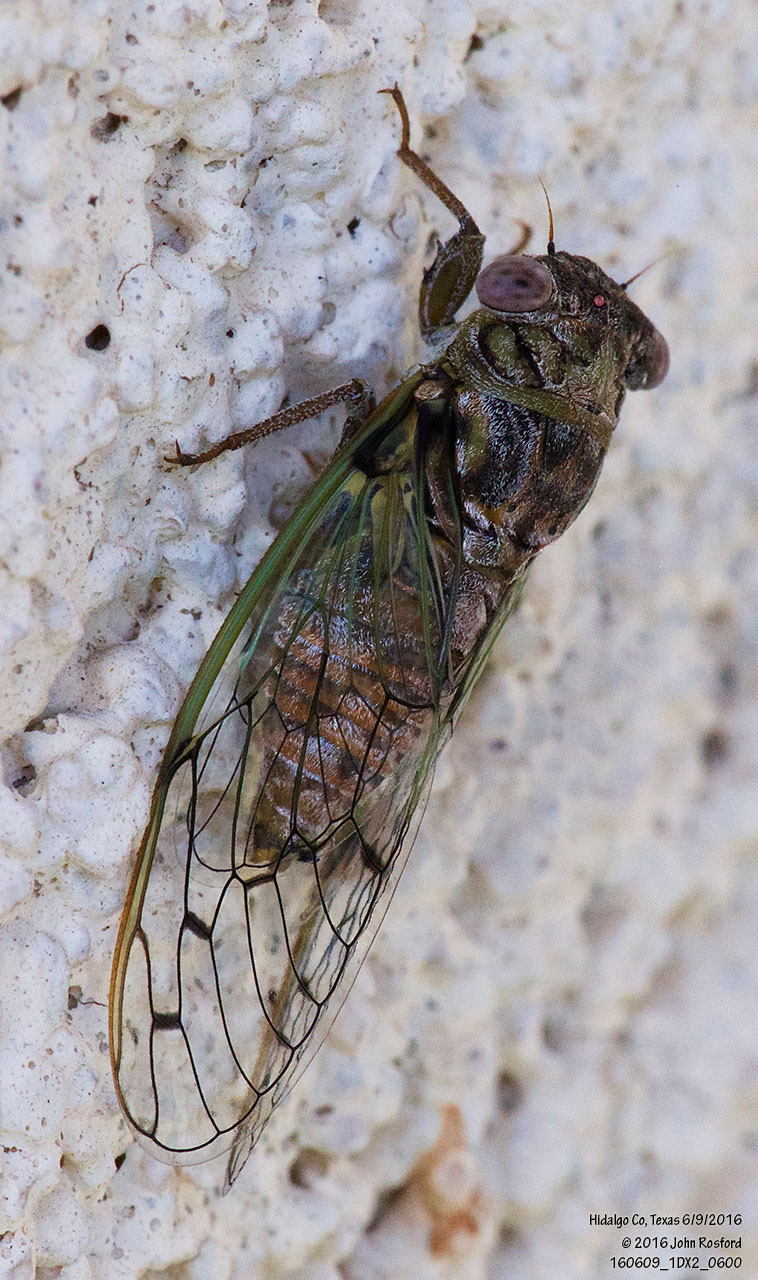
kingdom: Animalia
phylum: Arthropoda
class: Insecta
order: Hemiptera
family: Cicadidae
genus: Pacarina
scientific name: Pacarina puella
